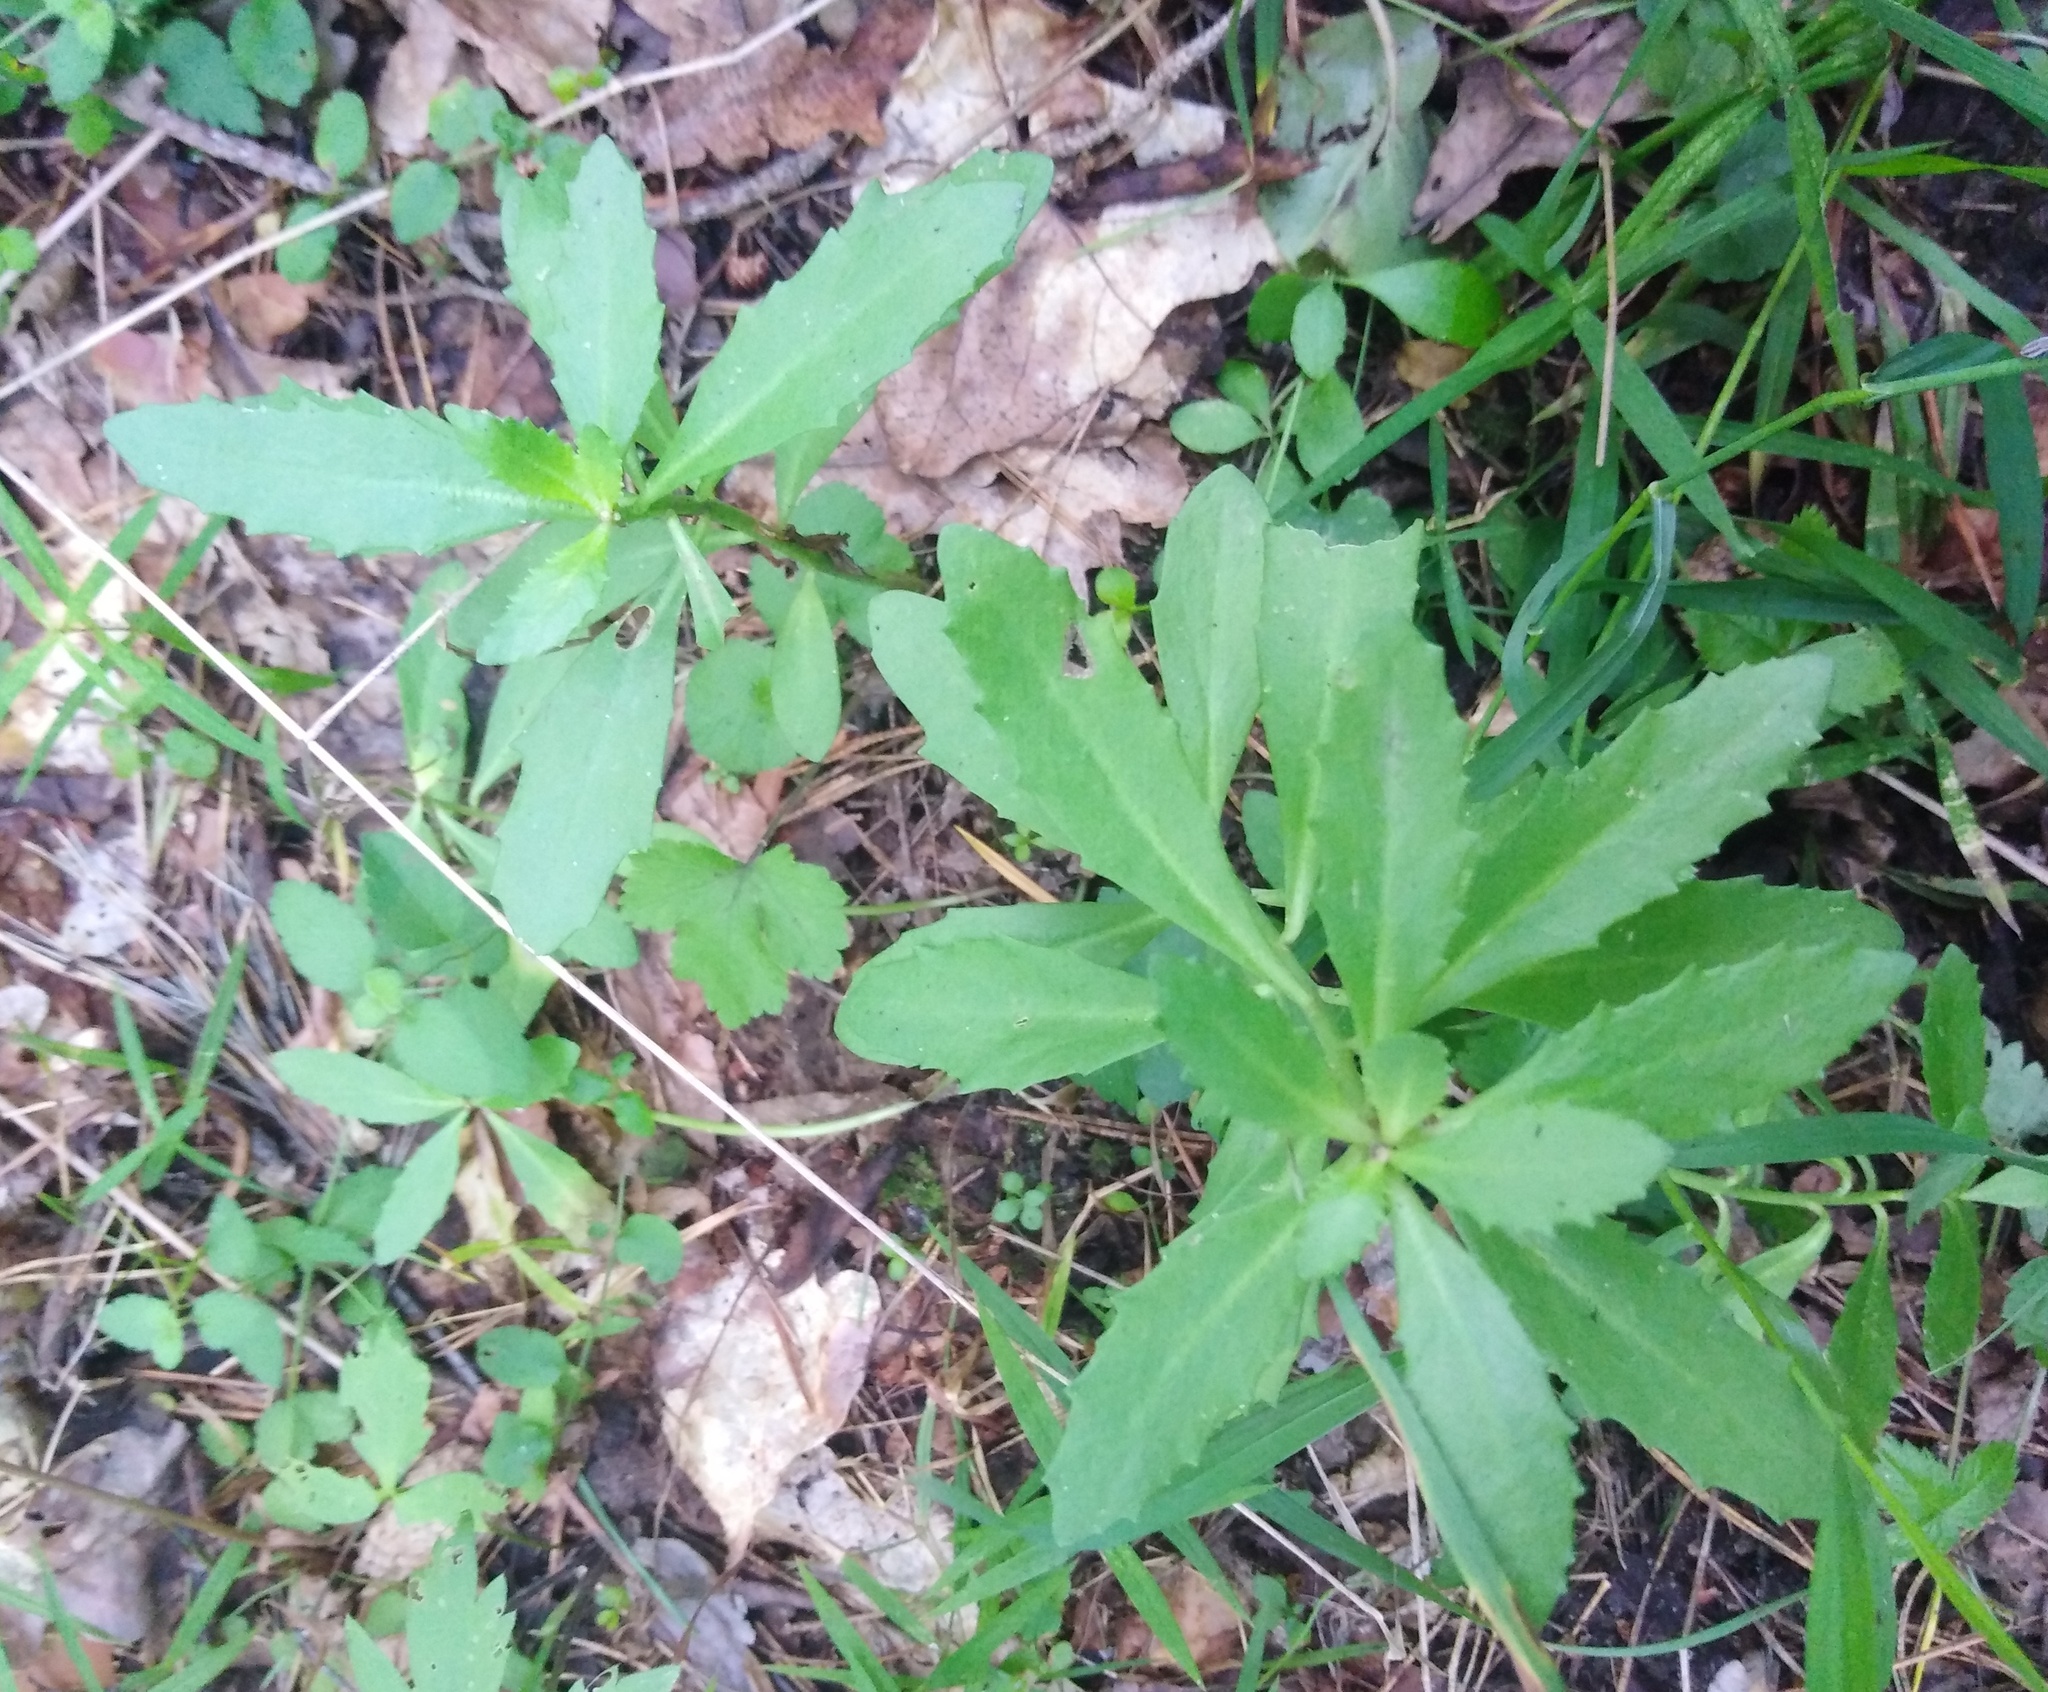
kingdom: Plantae
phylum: Tracheophyta
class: Magnoliopsida
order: Saxifragales
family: Crassulaceae
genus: Hylotelephium
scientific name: Hylotelephium telephium
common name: Live-forever
